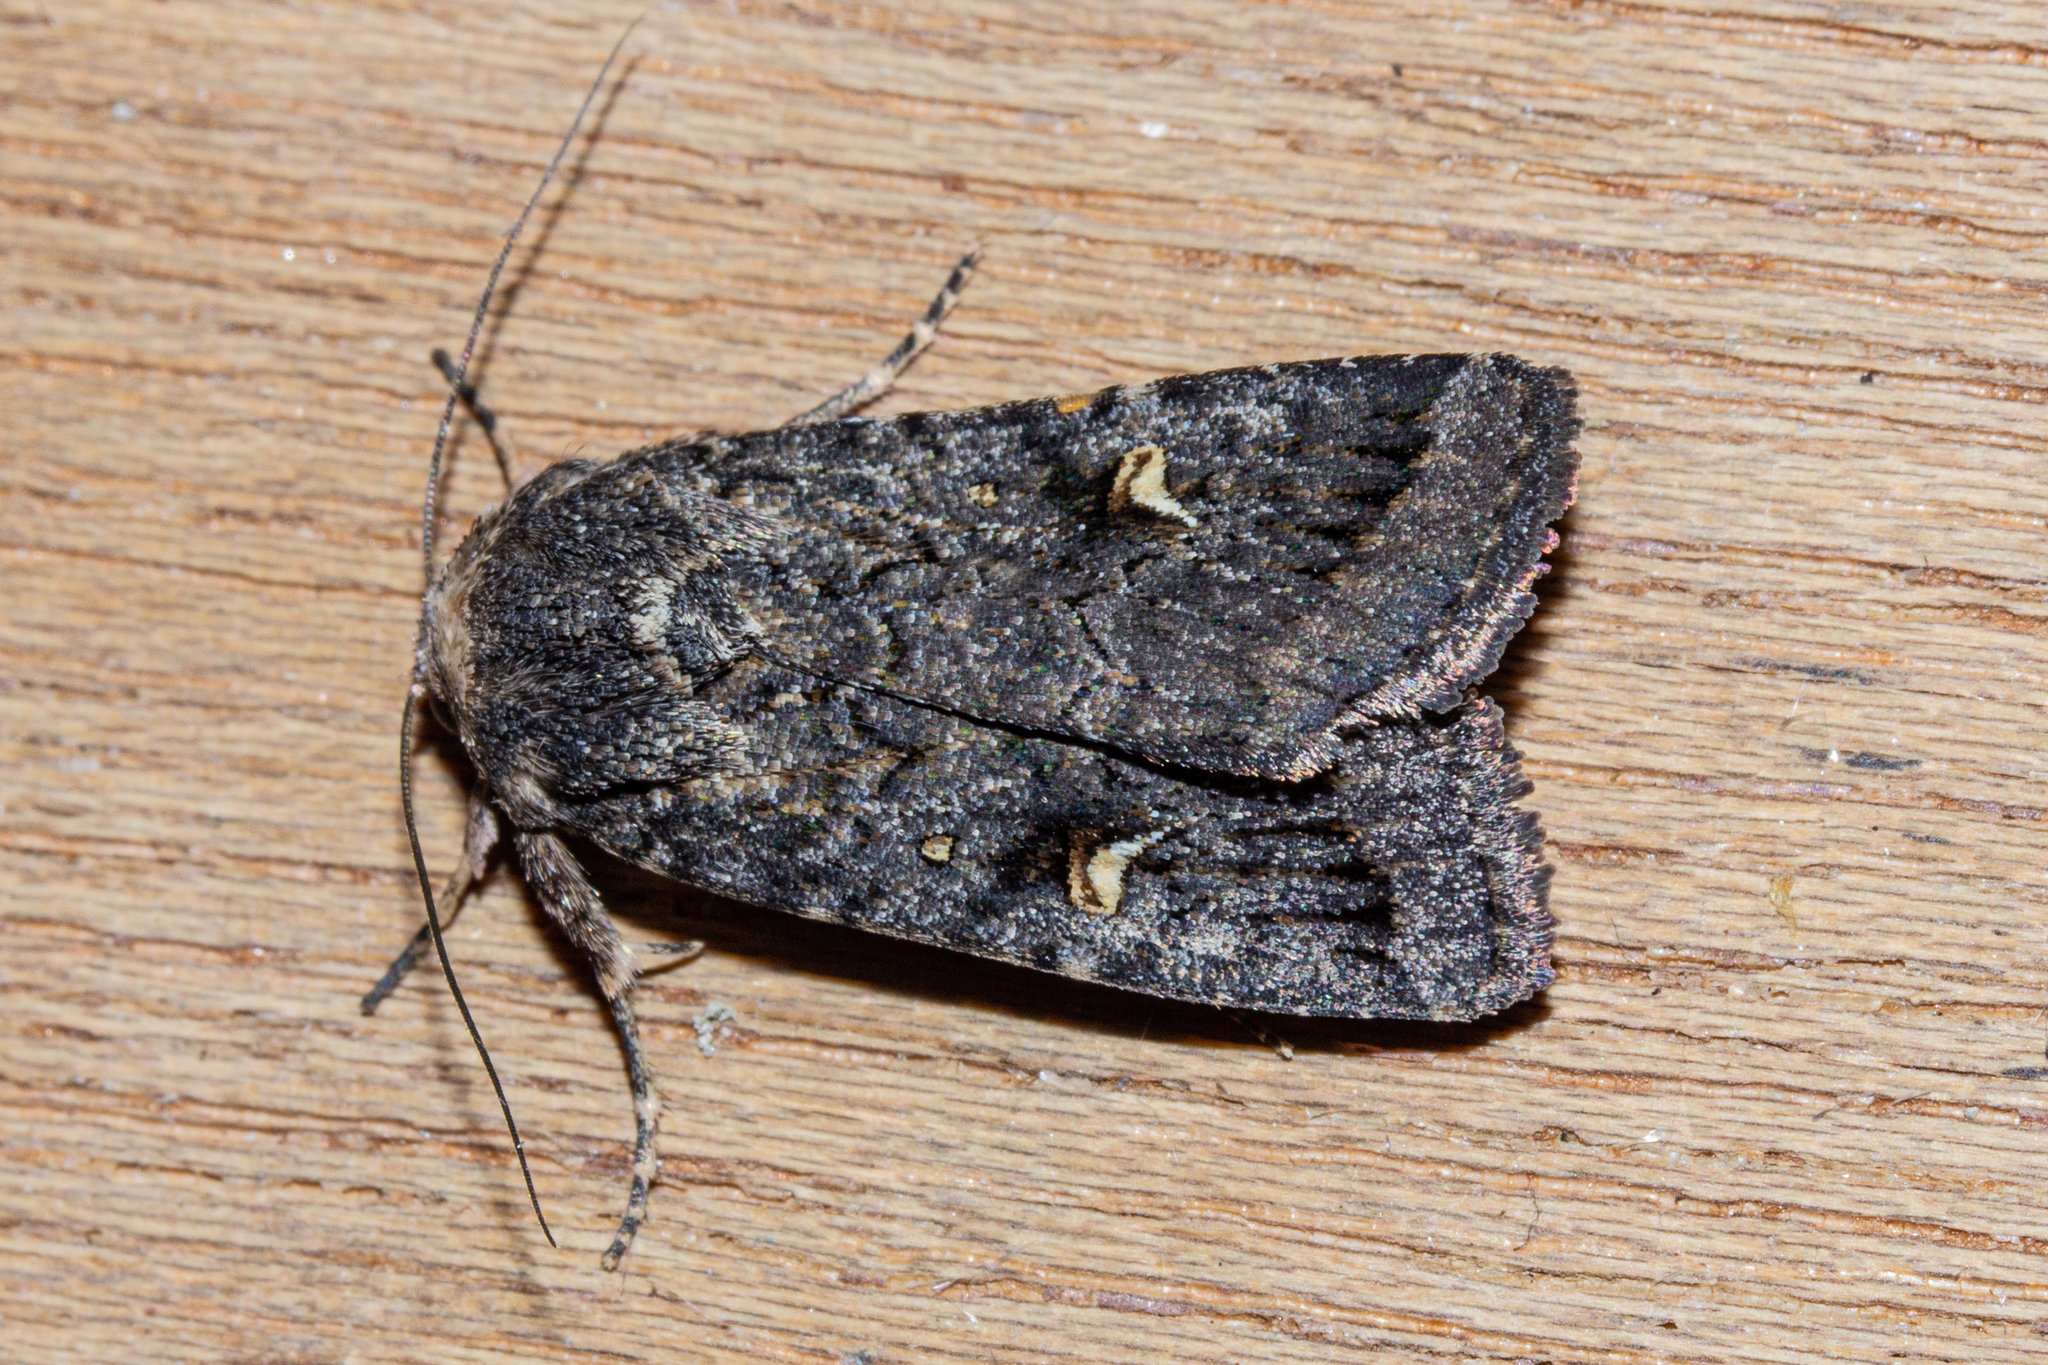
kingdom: Animalia
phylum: Arthropoda
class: Insecta
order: Lepidoptera
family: Noctuidae
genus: Proteuxoa
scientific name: Proteuxoa comma
